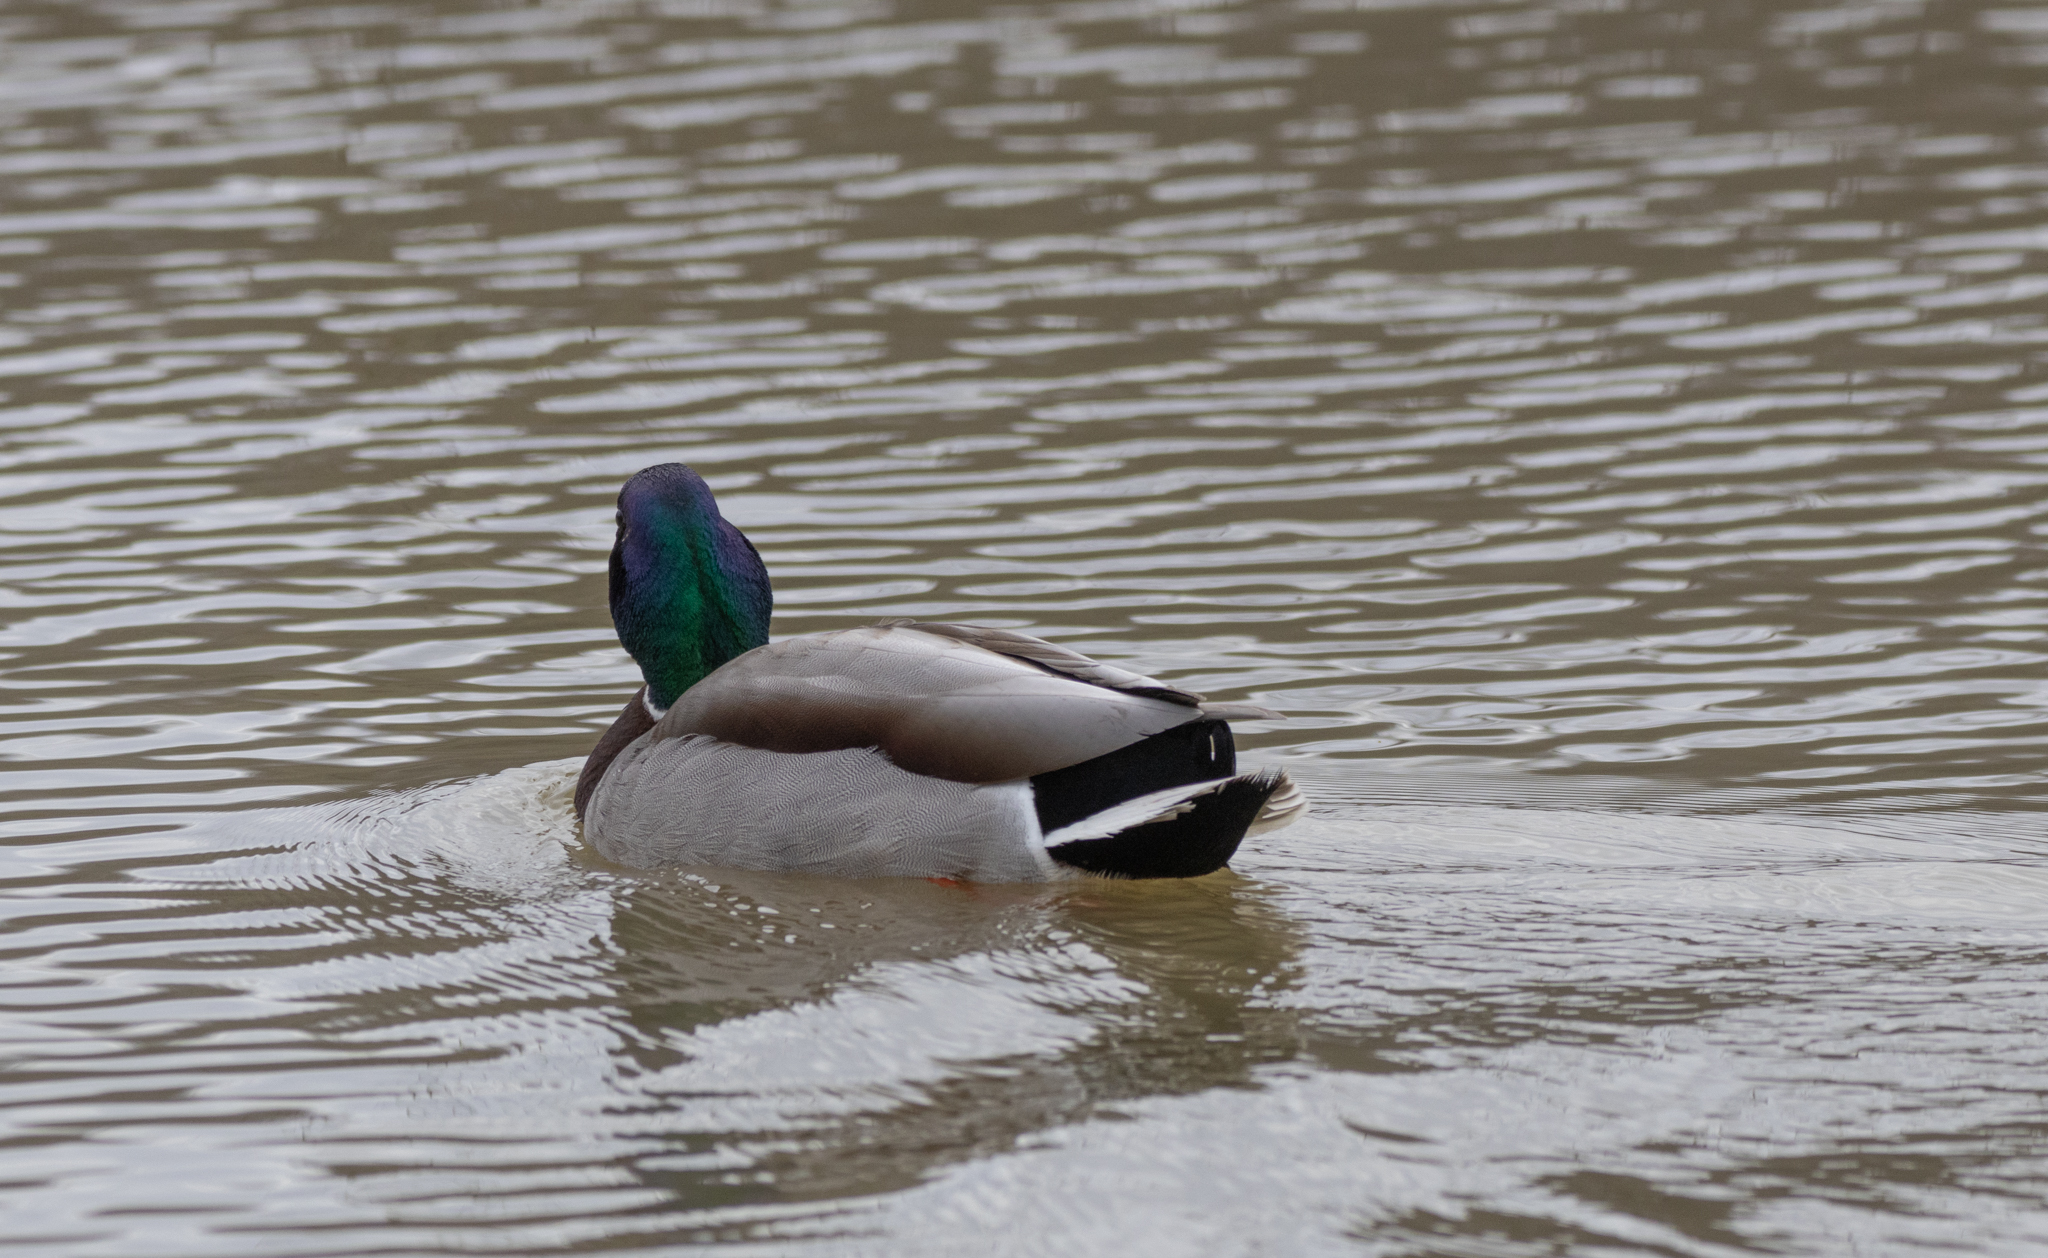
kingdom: Animalia
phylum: Chordata
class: Aves
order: Anseriformes
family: Anatidae
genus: Anas
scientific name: Anas platyrhynchos
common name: Mallard
